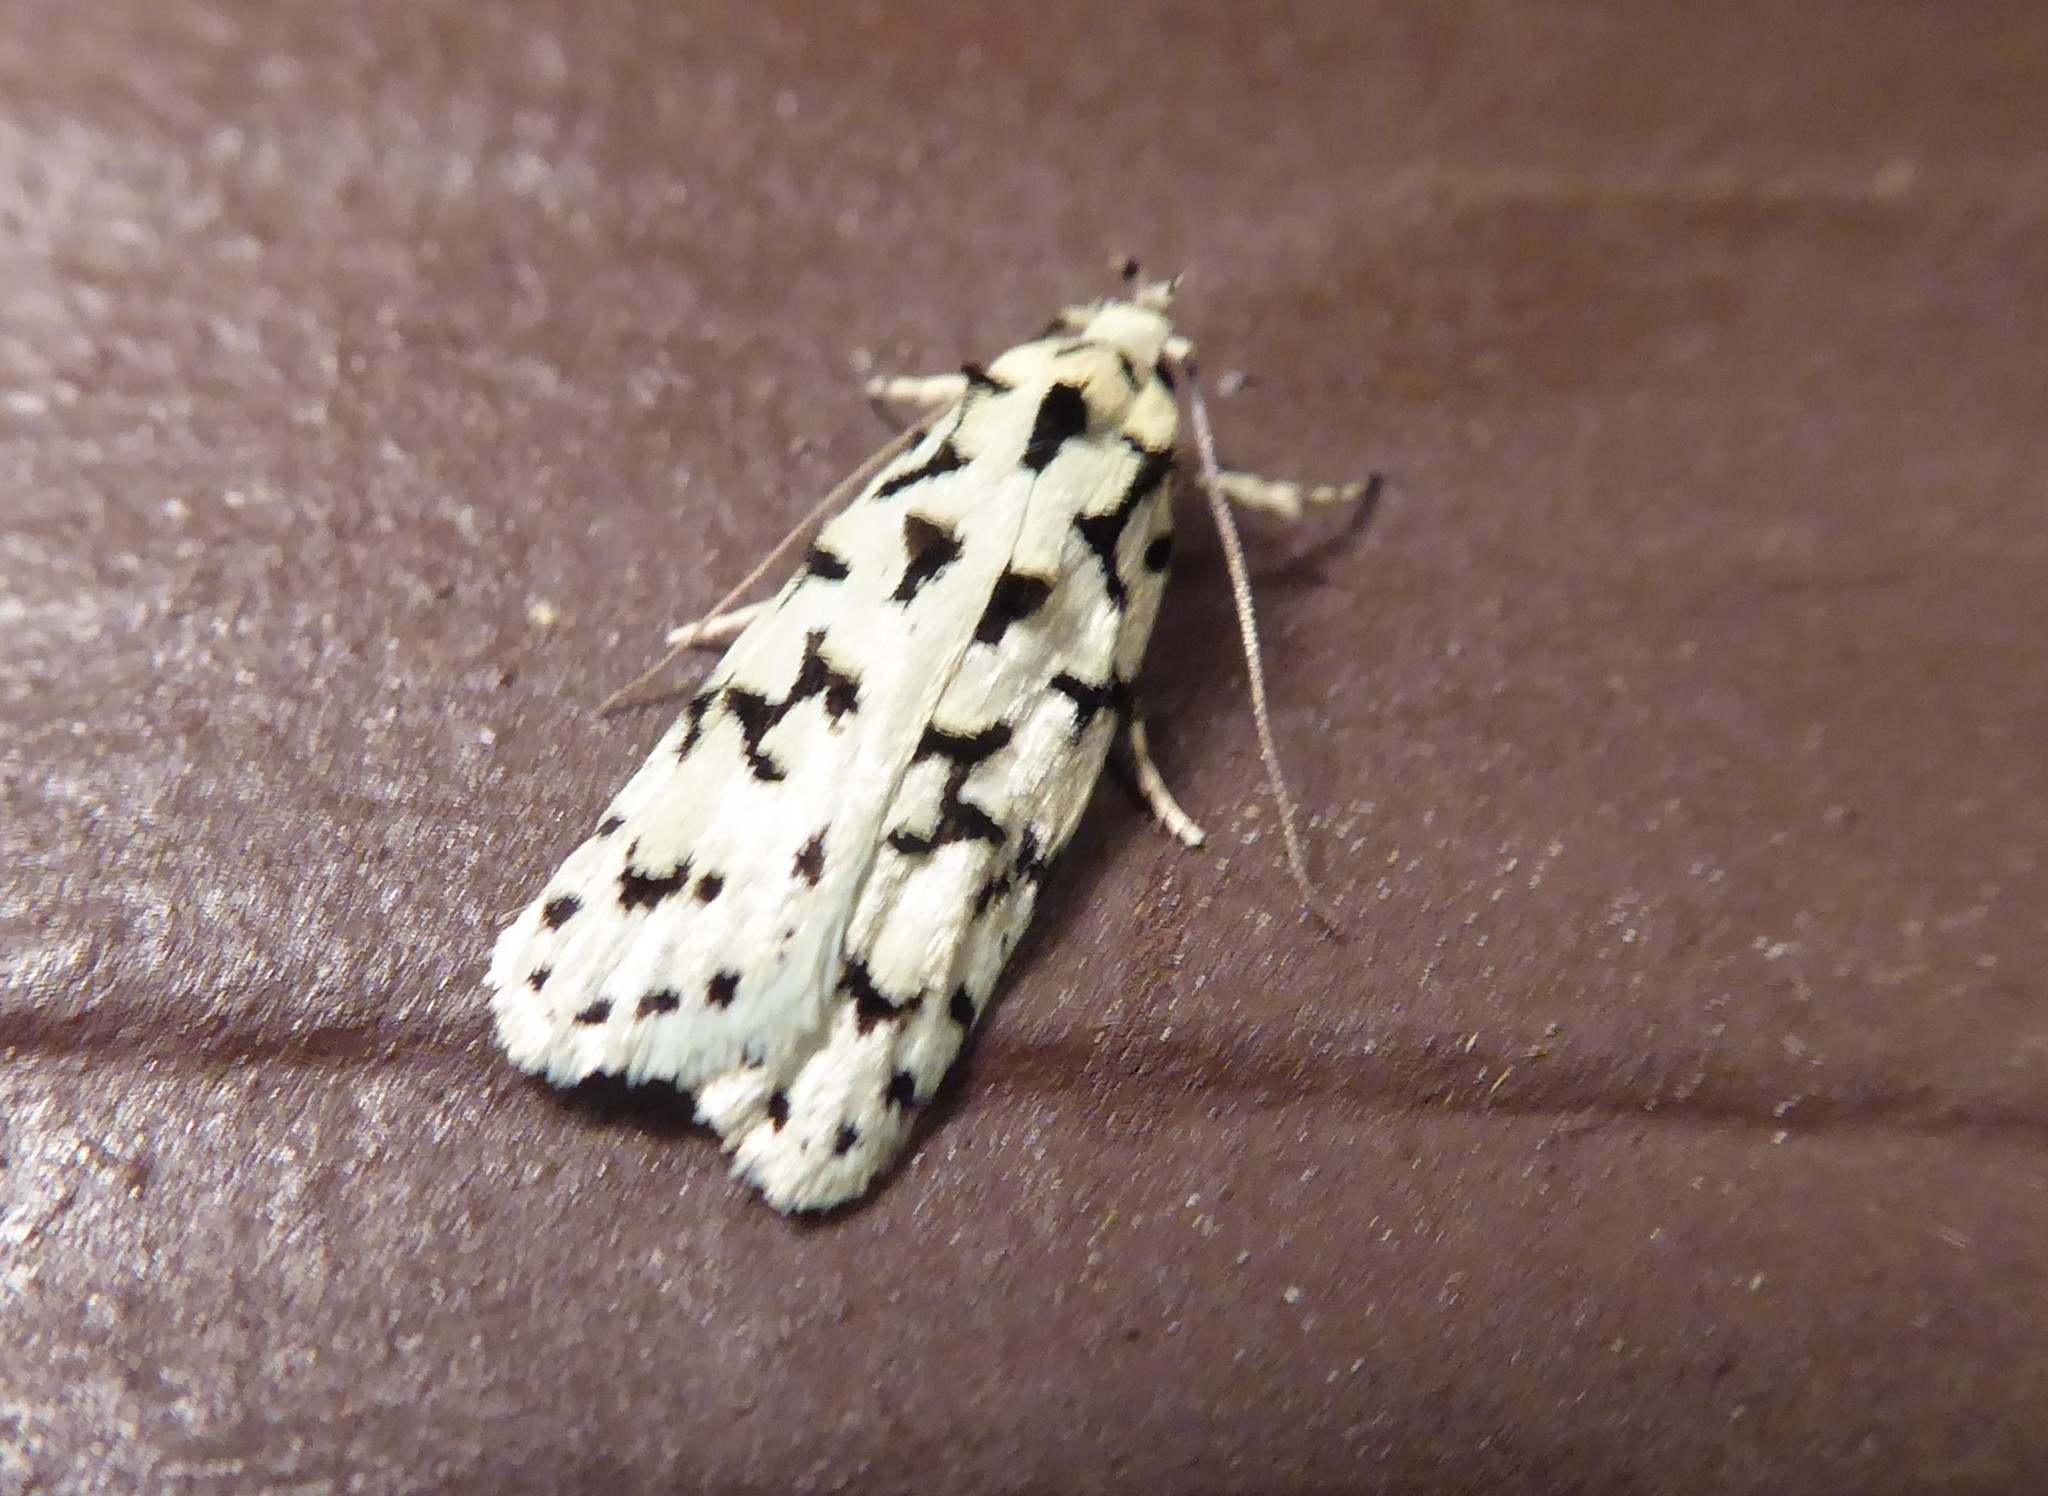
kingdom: Animalia
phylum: Arthropoda
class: Insecta
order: Lepidoptera
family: Oecophoridae
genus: Izatha
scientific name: Izatha huttoni
